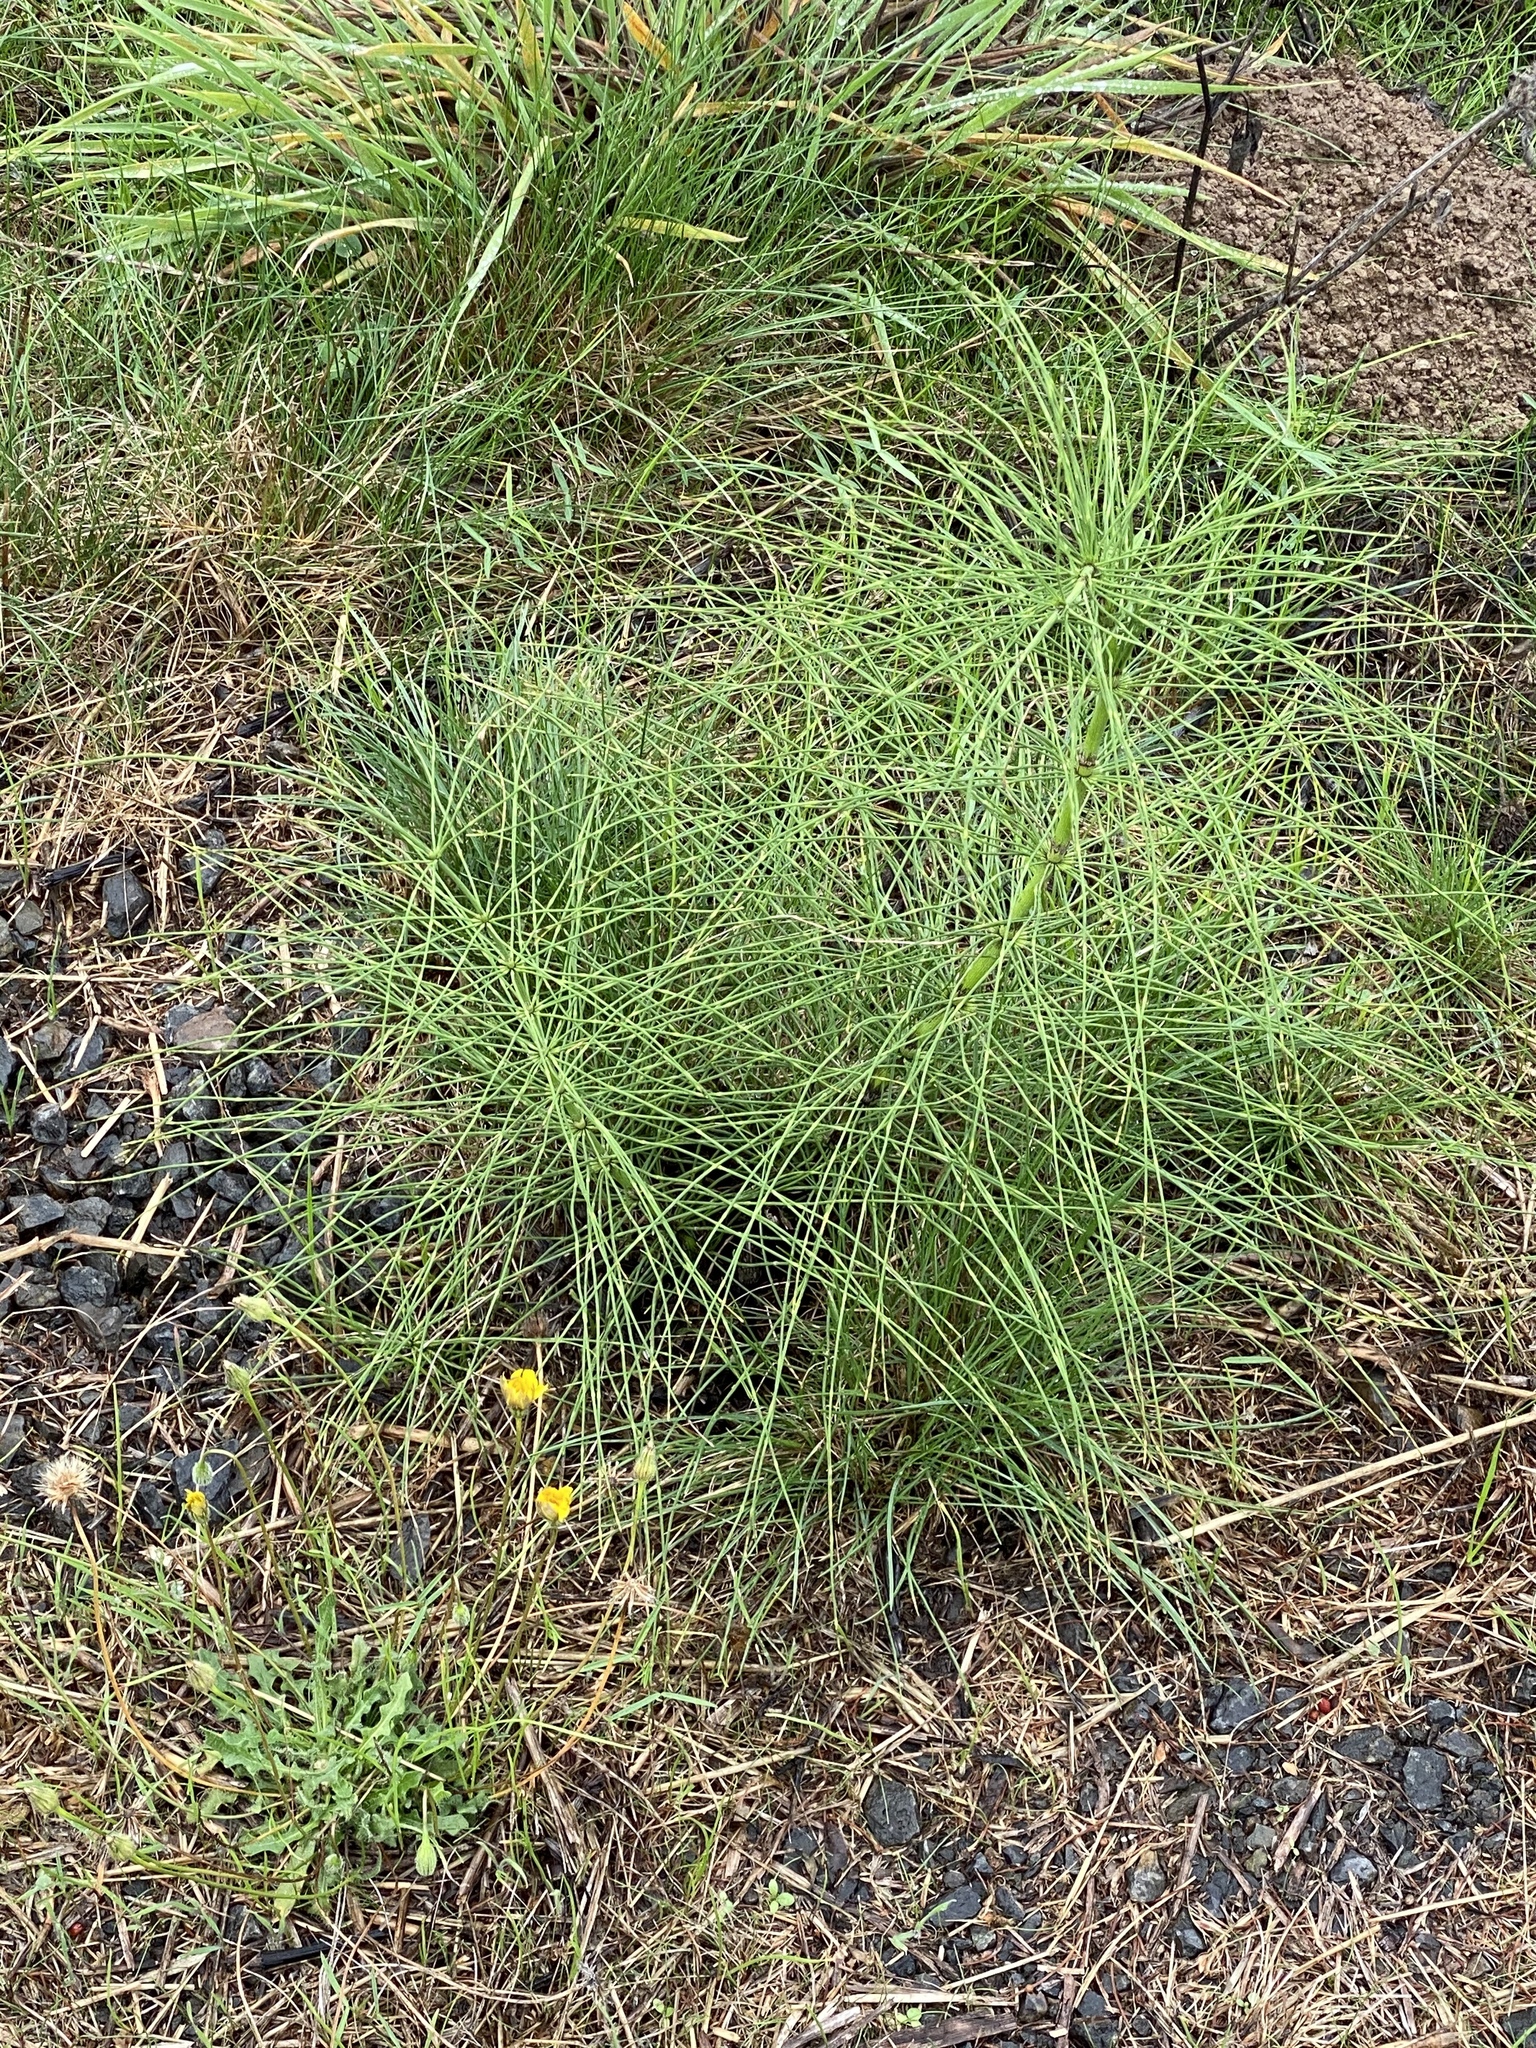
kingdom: Plantae
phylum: Tracheophyta
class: Polypodiopsida
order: Equisetales
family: Equisetaceae
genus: Equisetum
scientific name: Equisetum braunii
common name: Braun's horsetail
